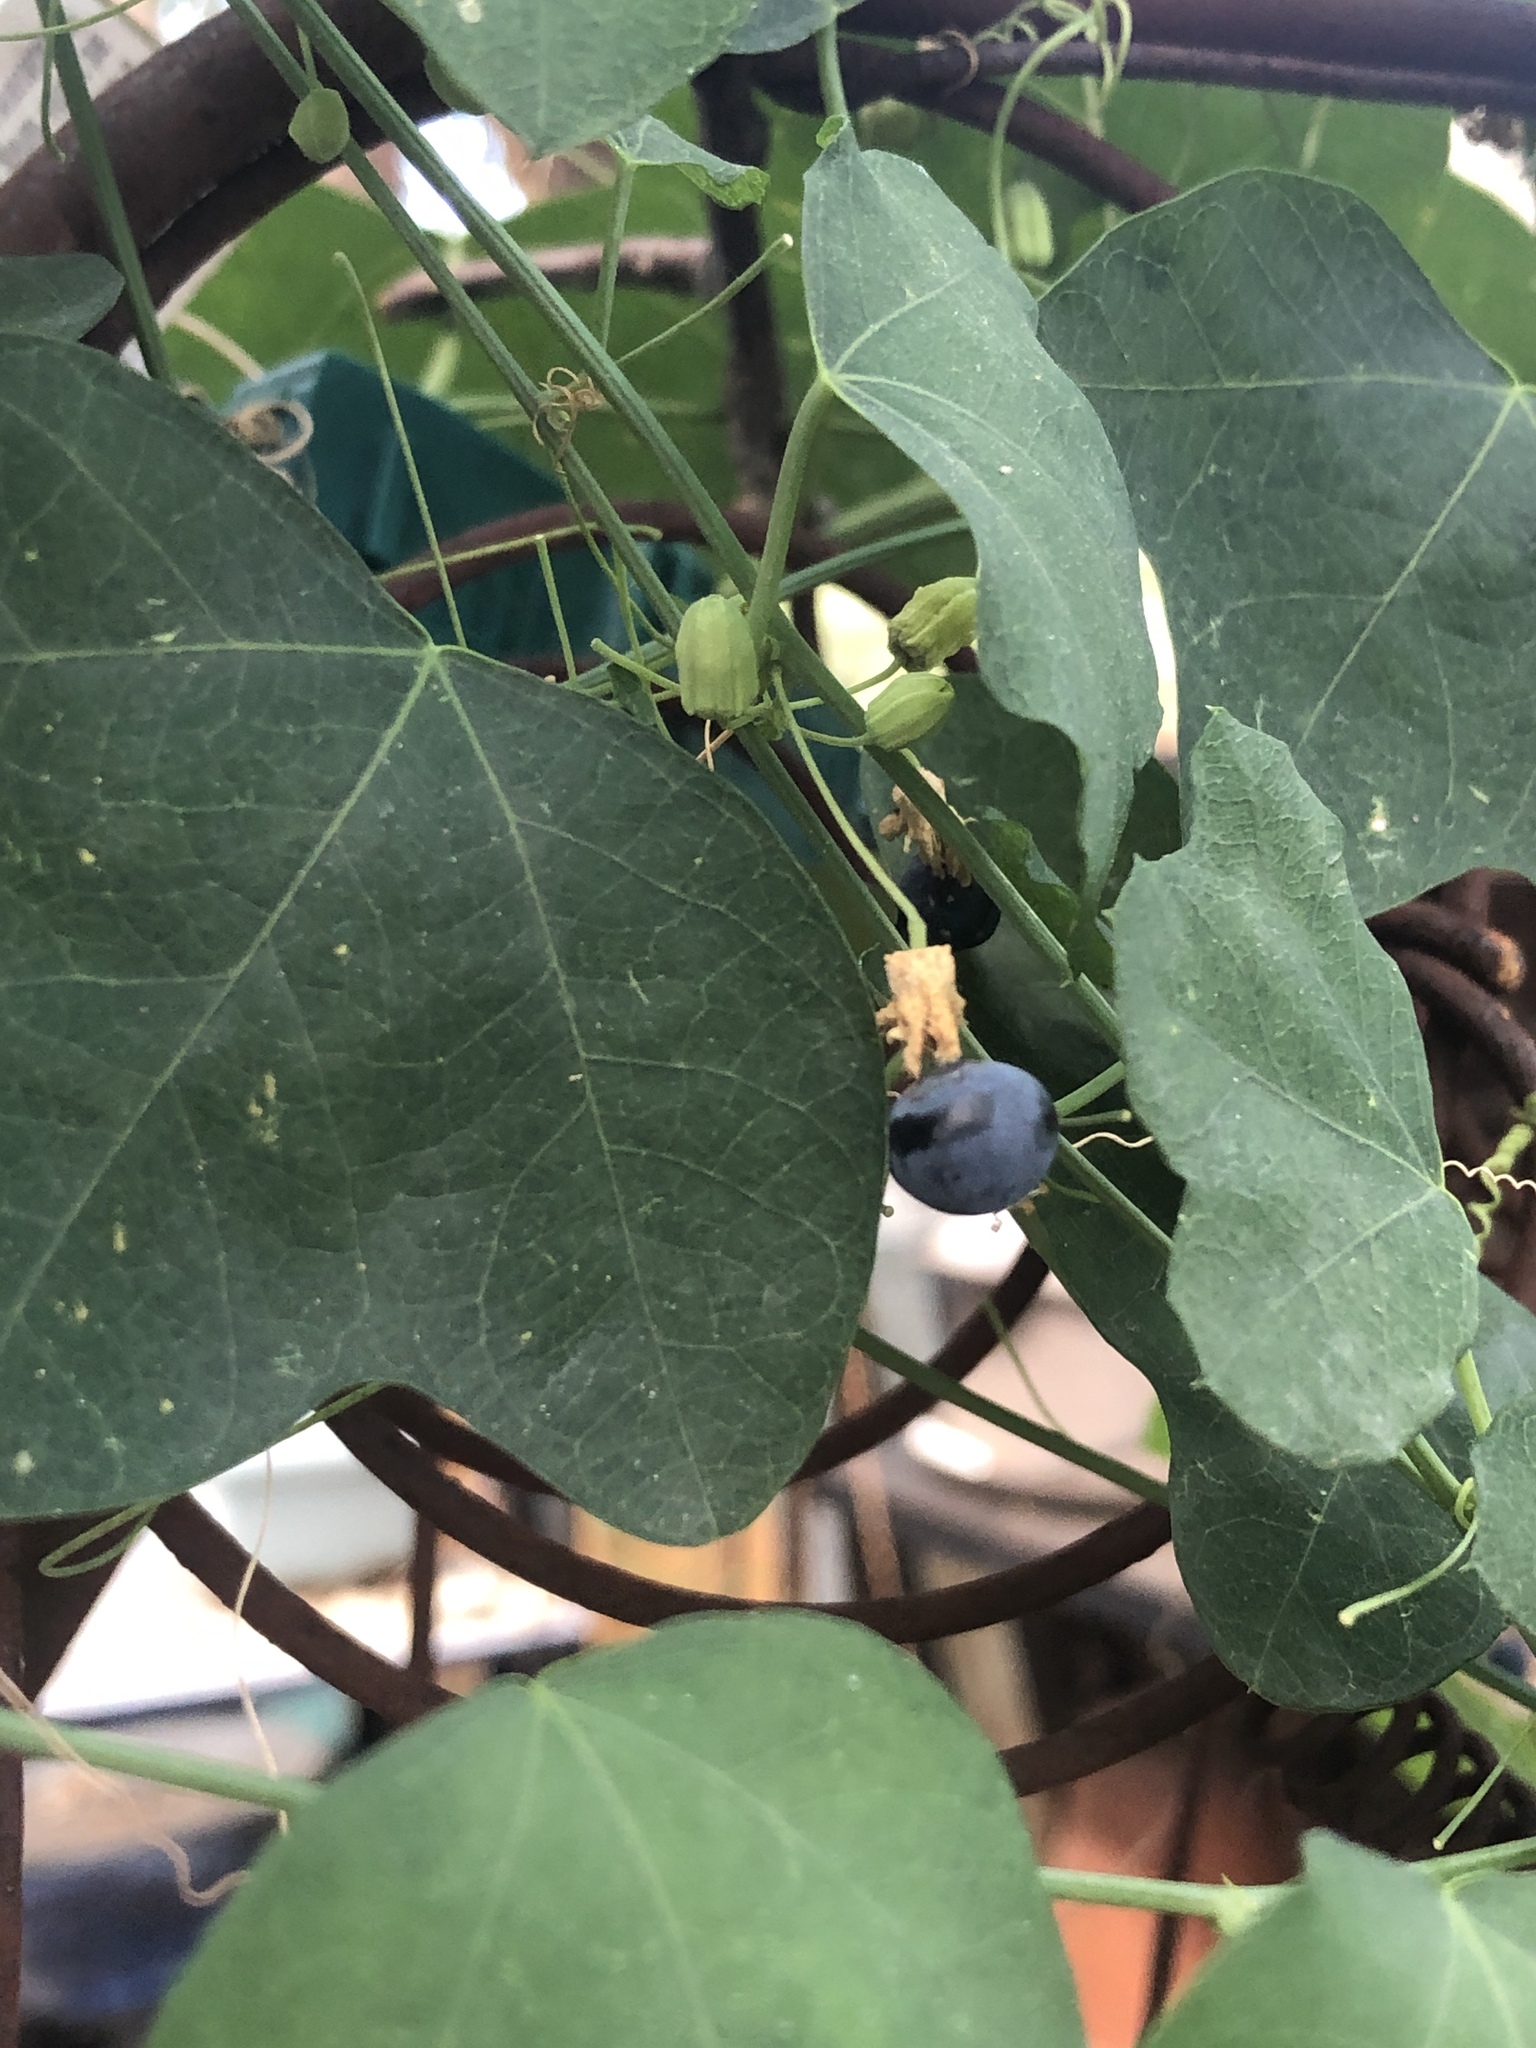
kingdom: Plantae
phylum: Tracheophyta
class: Magnoliopsida
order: Malpighiales
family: Passifloraceae
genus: Passiflora
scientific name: Passiflora lutea
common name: Yellow passionflower
